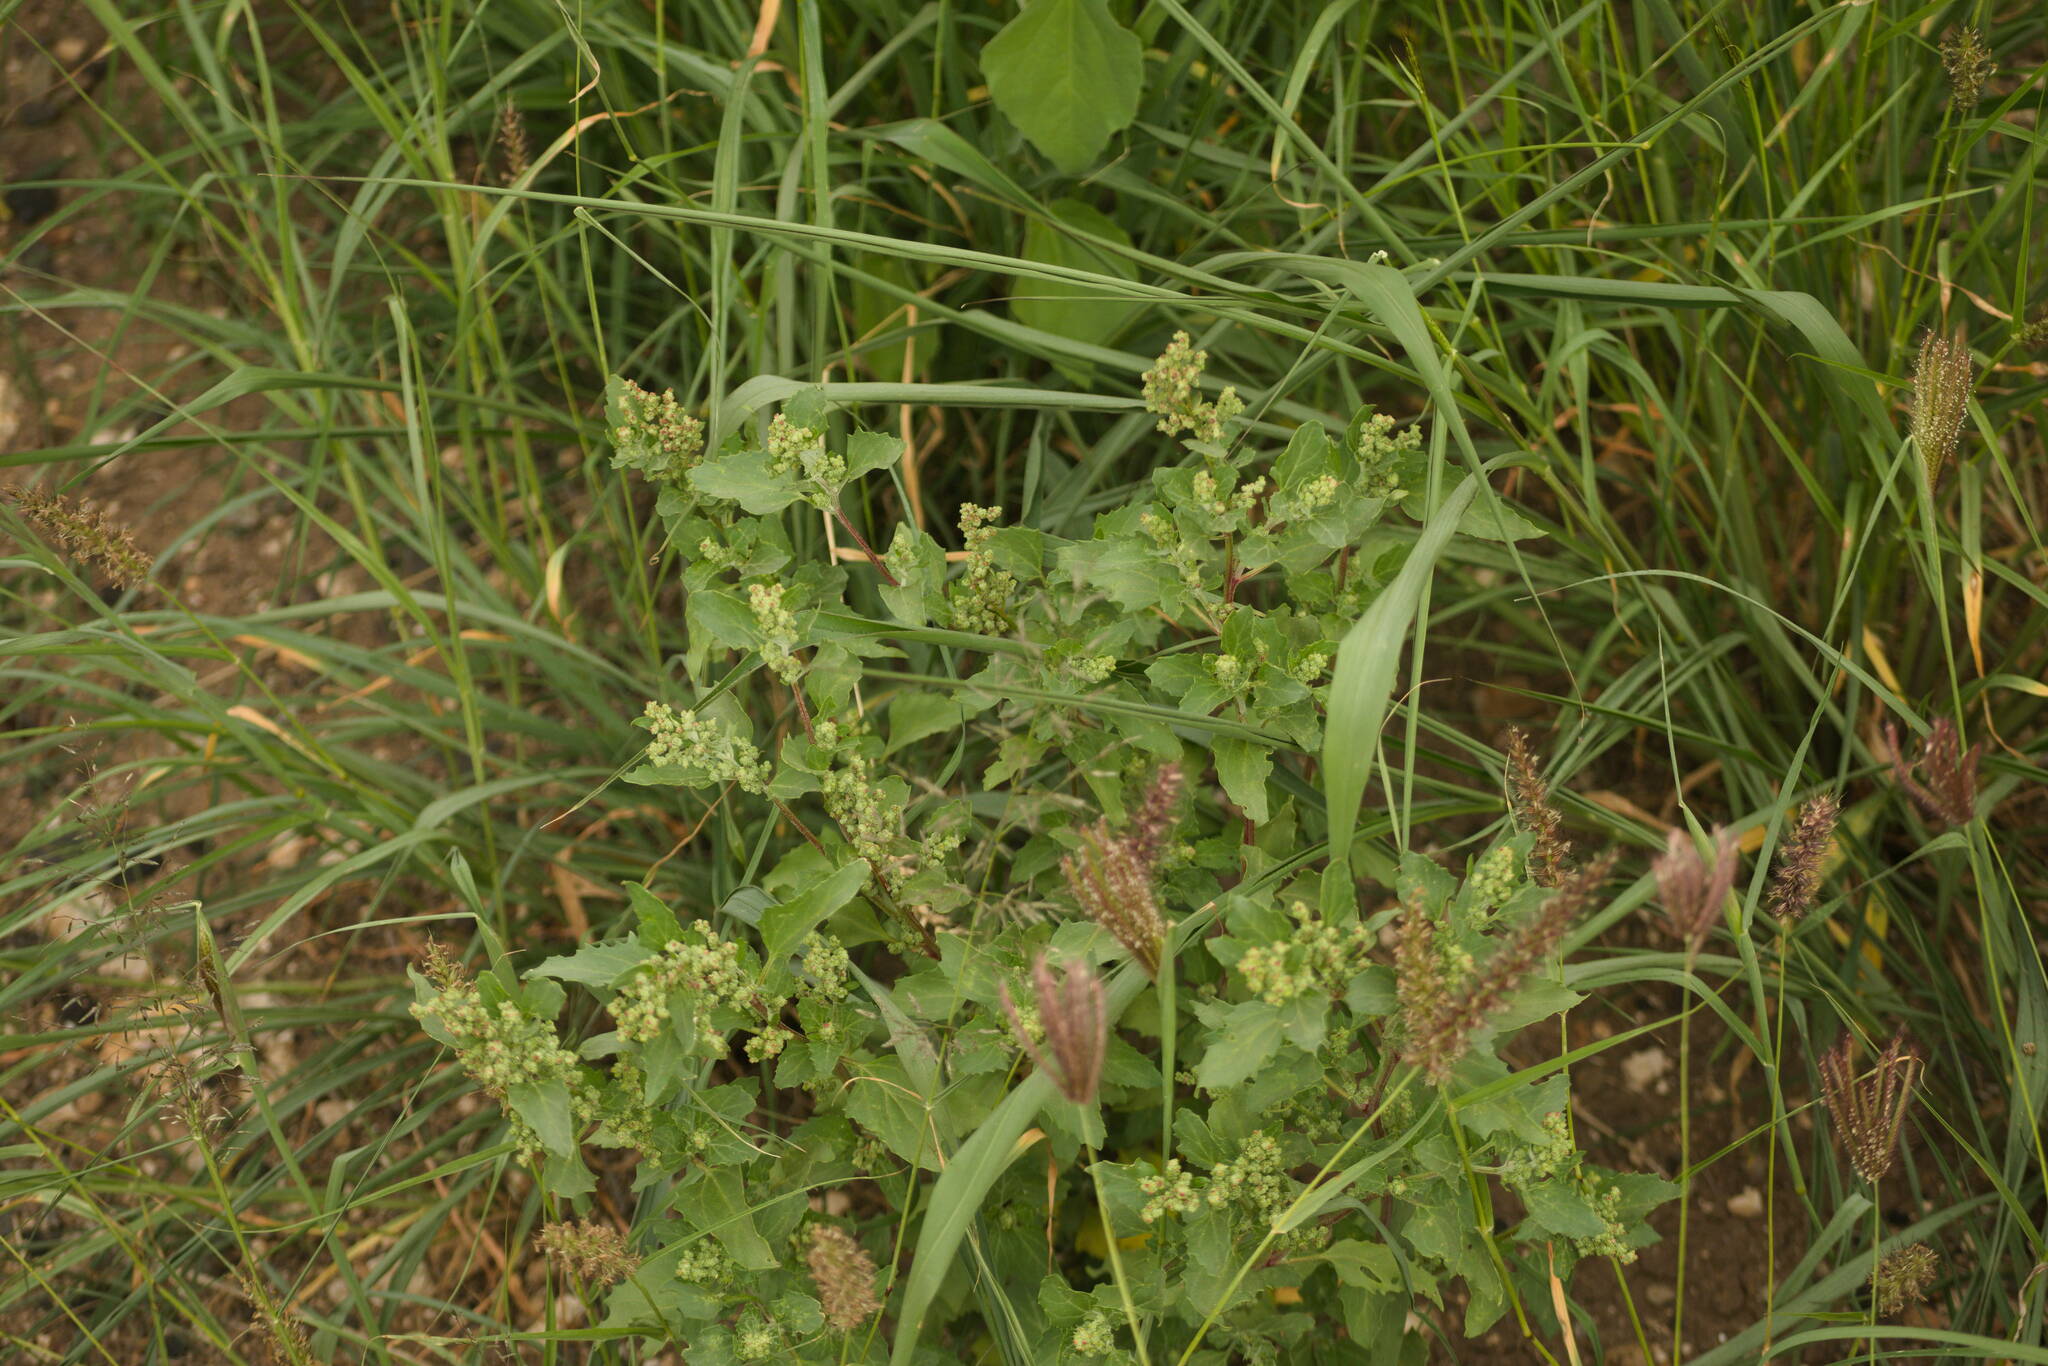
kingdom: Plantae
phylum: Tracheophyta
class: Magnoliopsida
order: Caryophyllales
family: Amaranthaceae
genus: Chenopodiastrum
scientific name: Chenopodiastrum murale
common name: Sowbane
